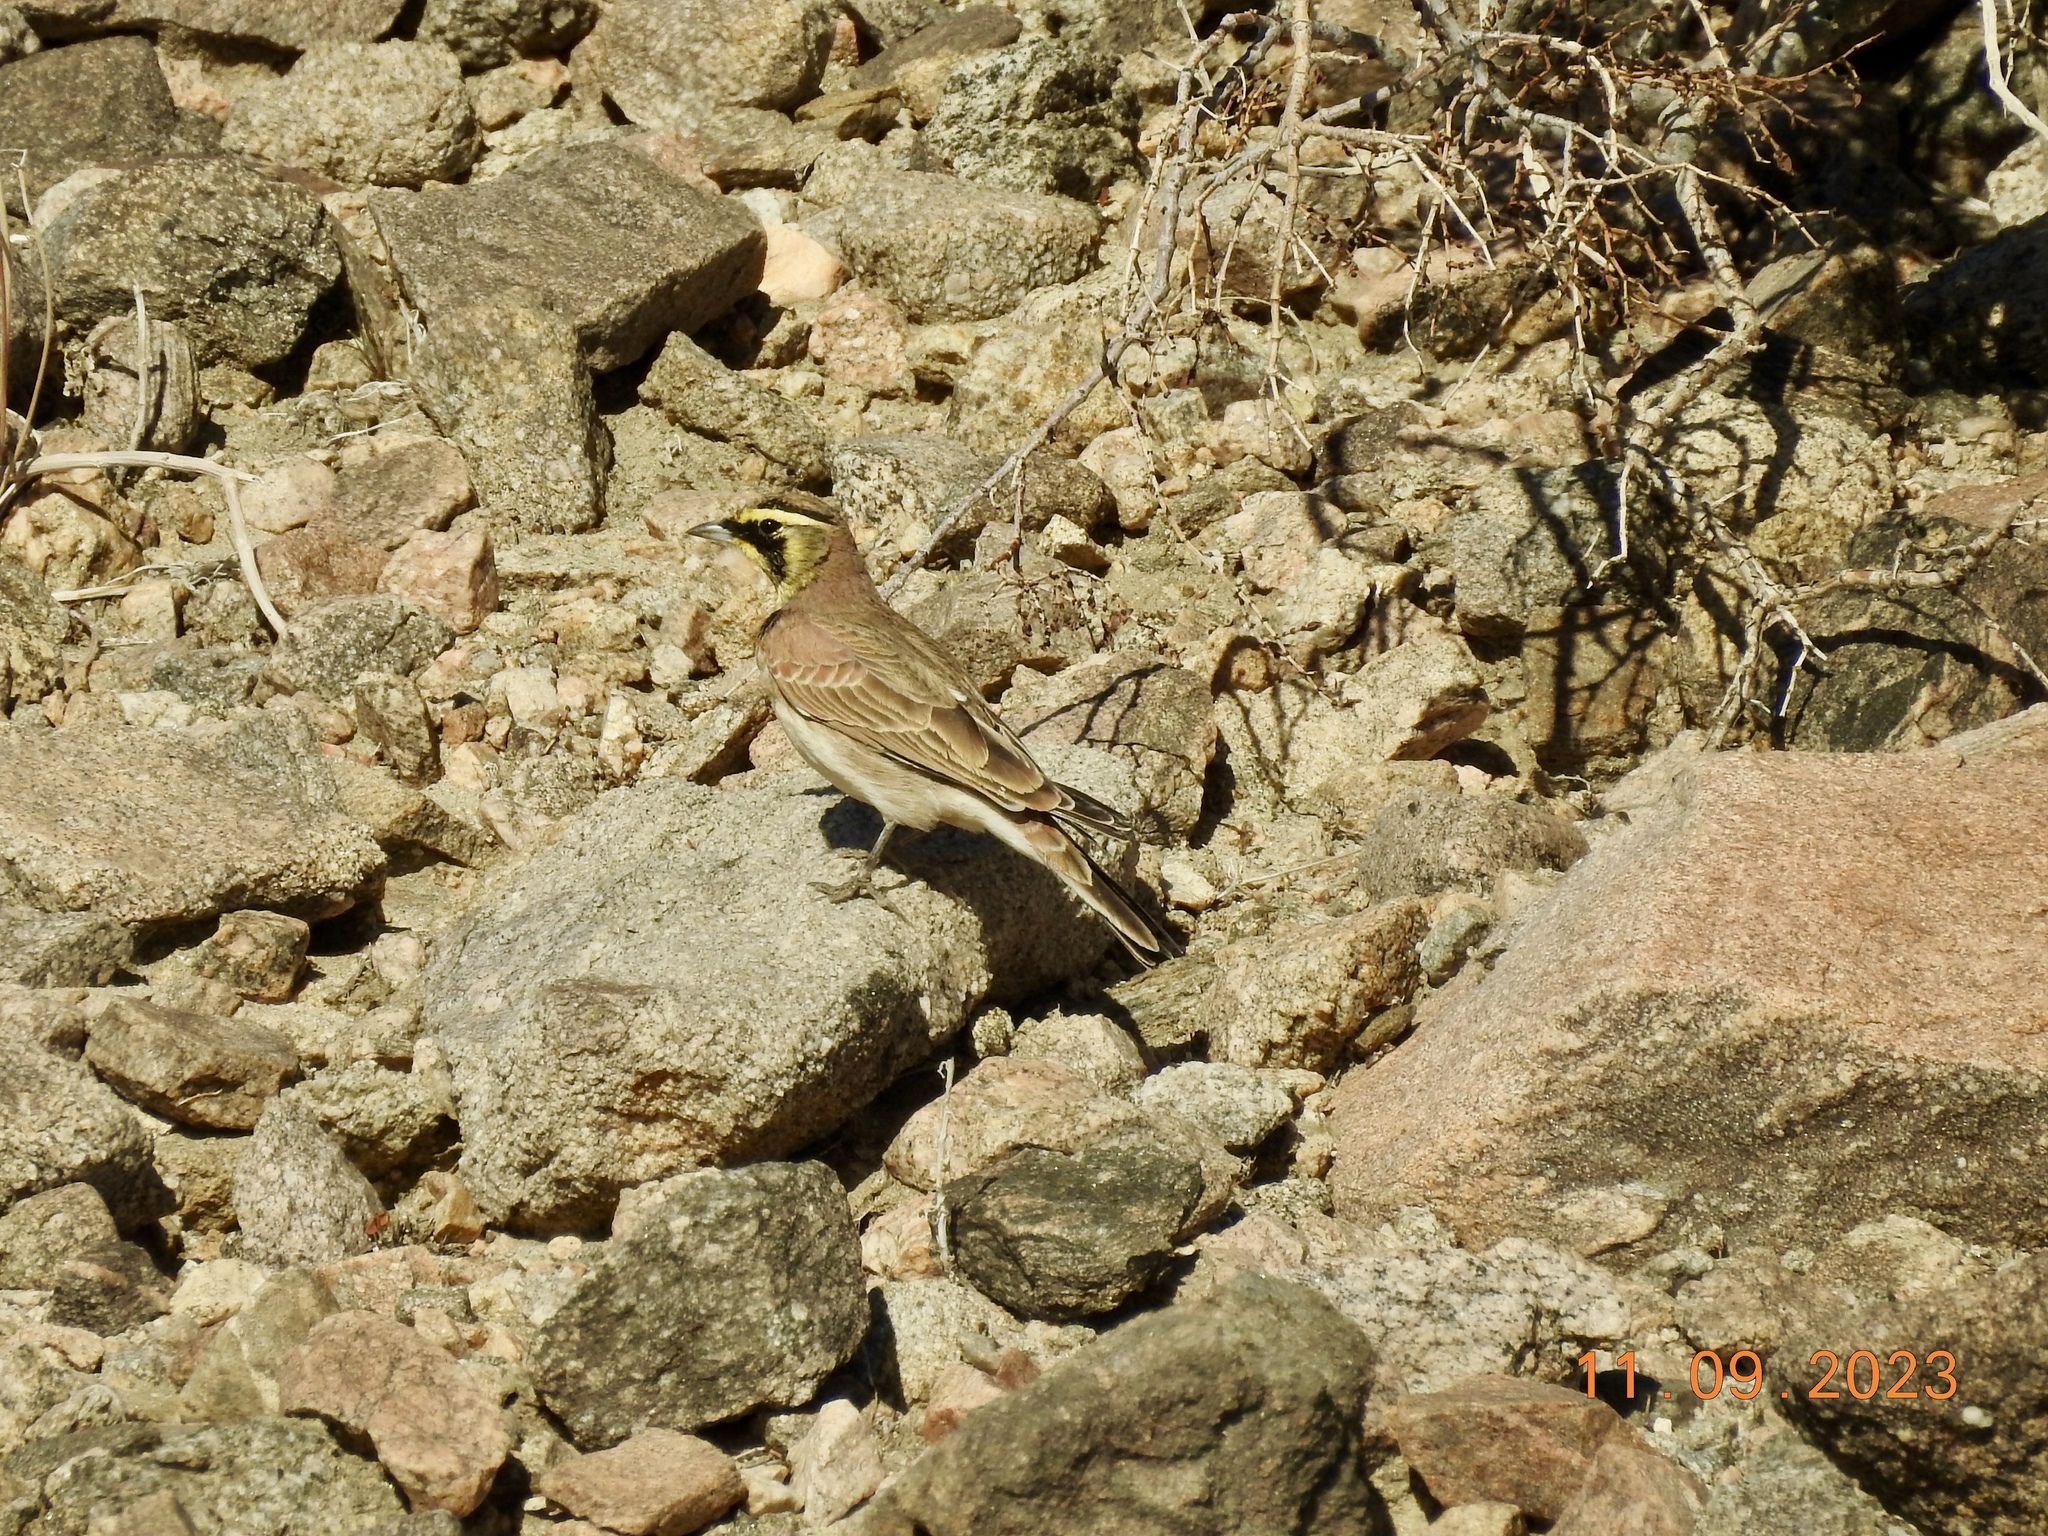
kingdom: Animalia
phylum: Chordata
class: Aves
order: Passeriformes
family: Alaudidae
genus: Eremophila
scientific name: Eremophila alpestris
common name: Horned lark
